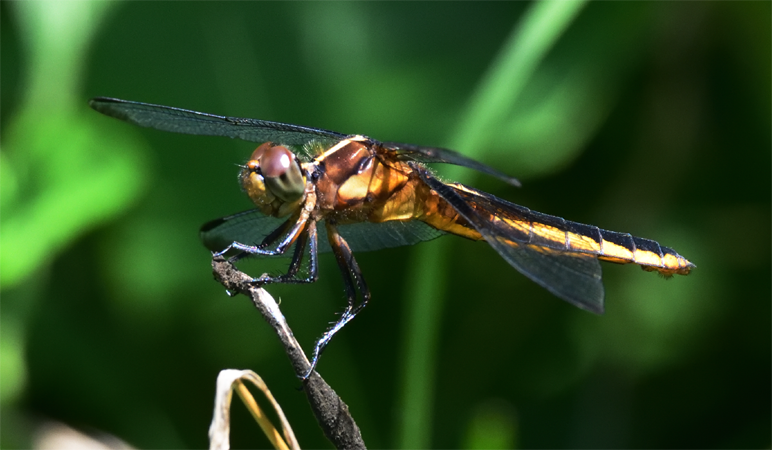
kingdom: Animalia
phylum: Arthropoda
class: Insecta
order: Odonata
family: Libellulidae
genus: Libellula
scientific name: Libellula luctuosa
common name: Widow skimmer
